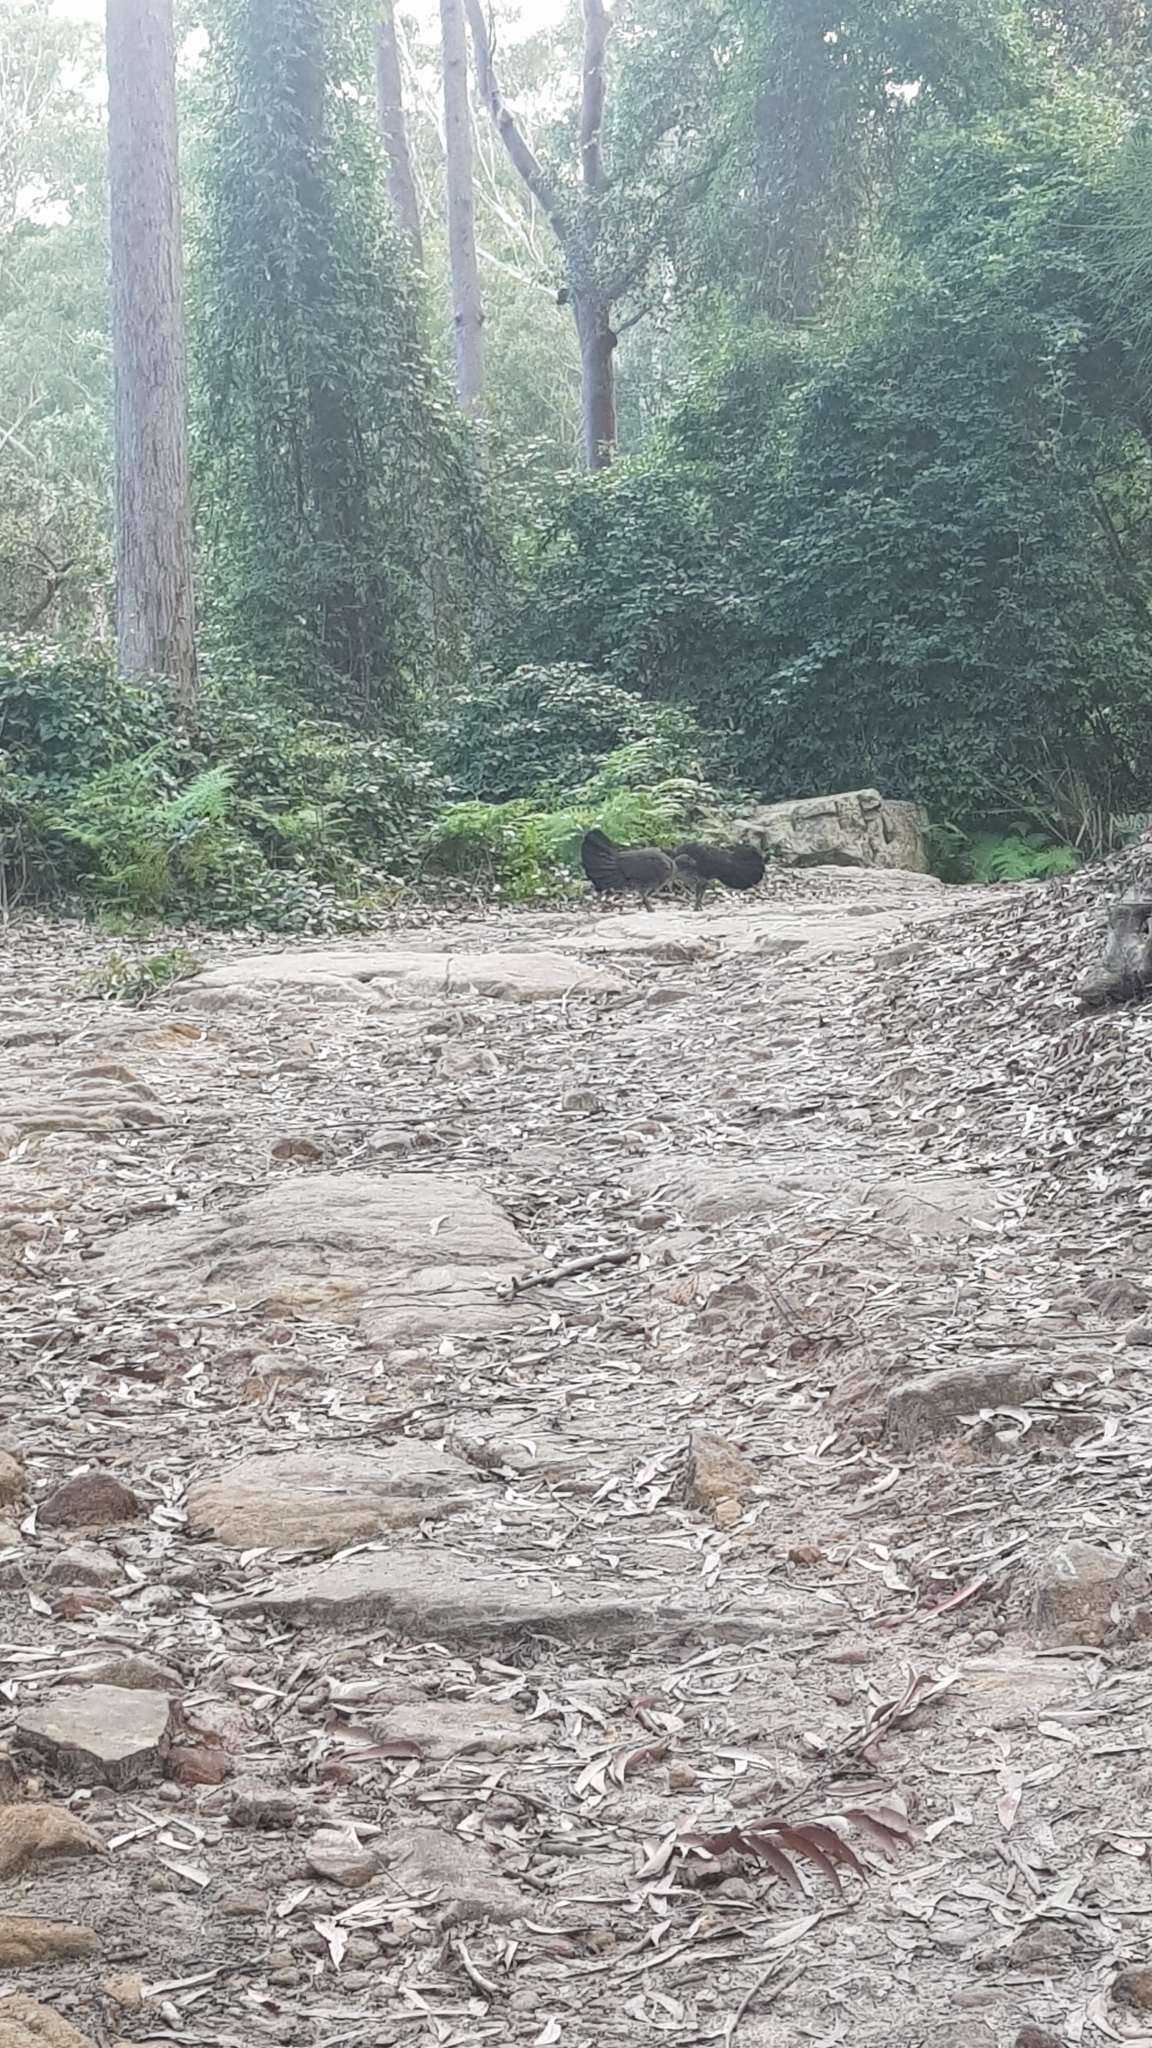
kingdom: Animalia
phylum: Chordata
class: Aves
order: Galliformes
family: Megapodiidae
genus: Alectura
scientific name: Alectura lathami
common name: Australian brushturkey
